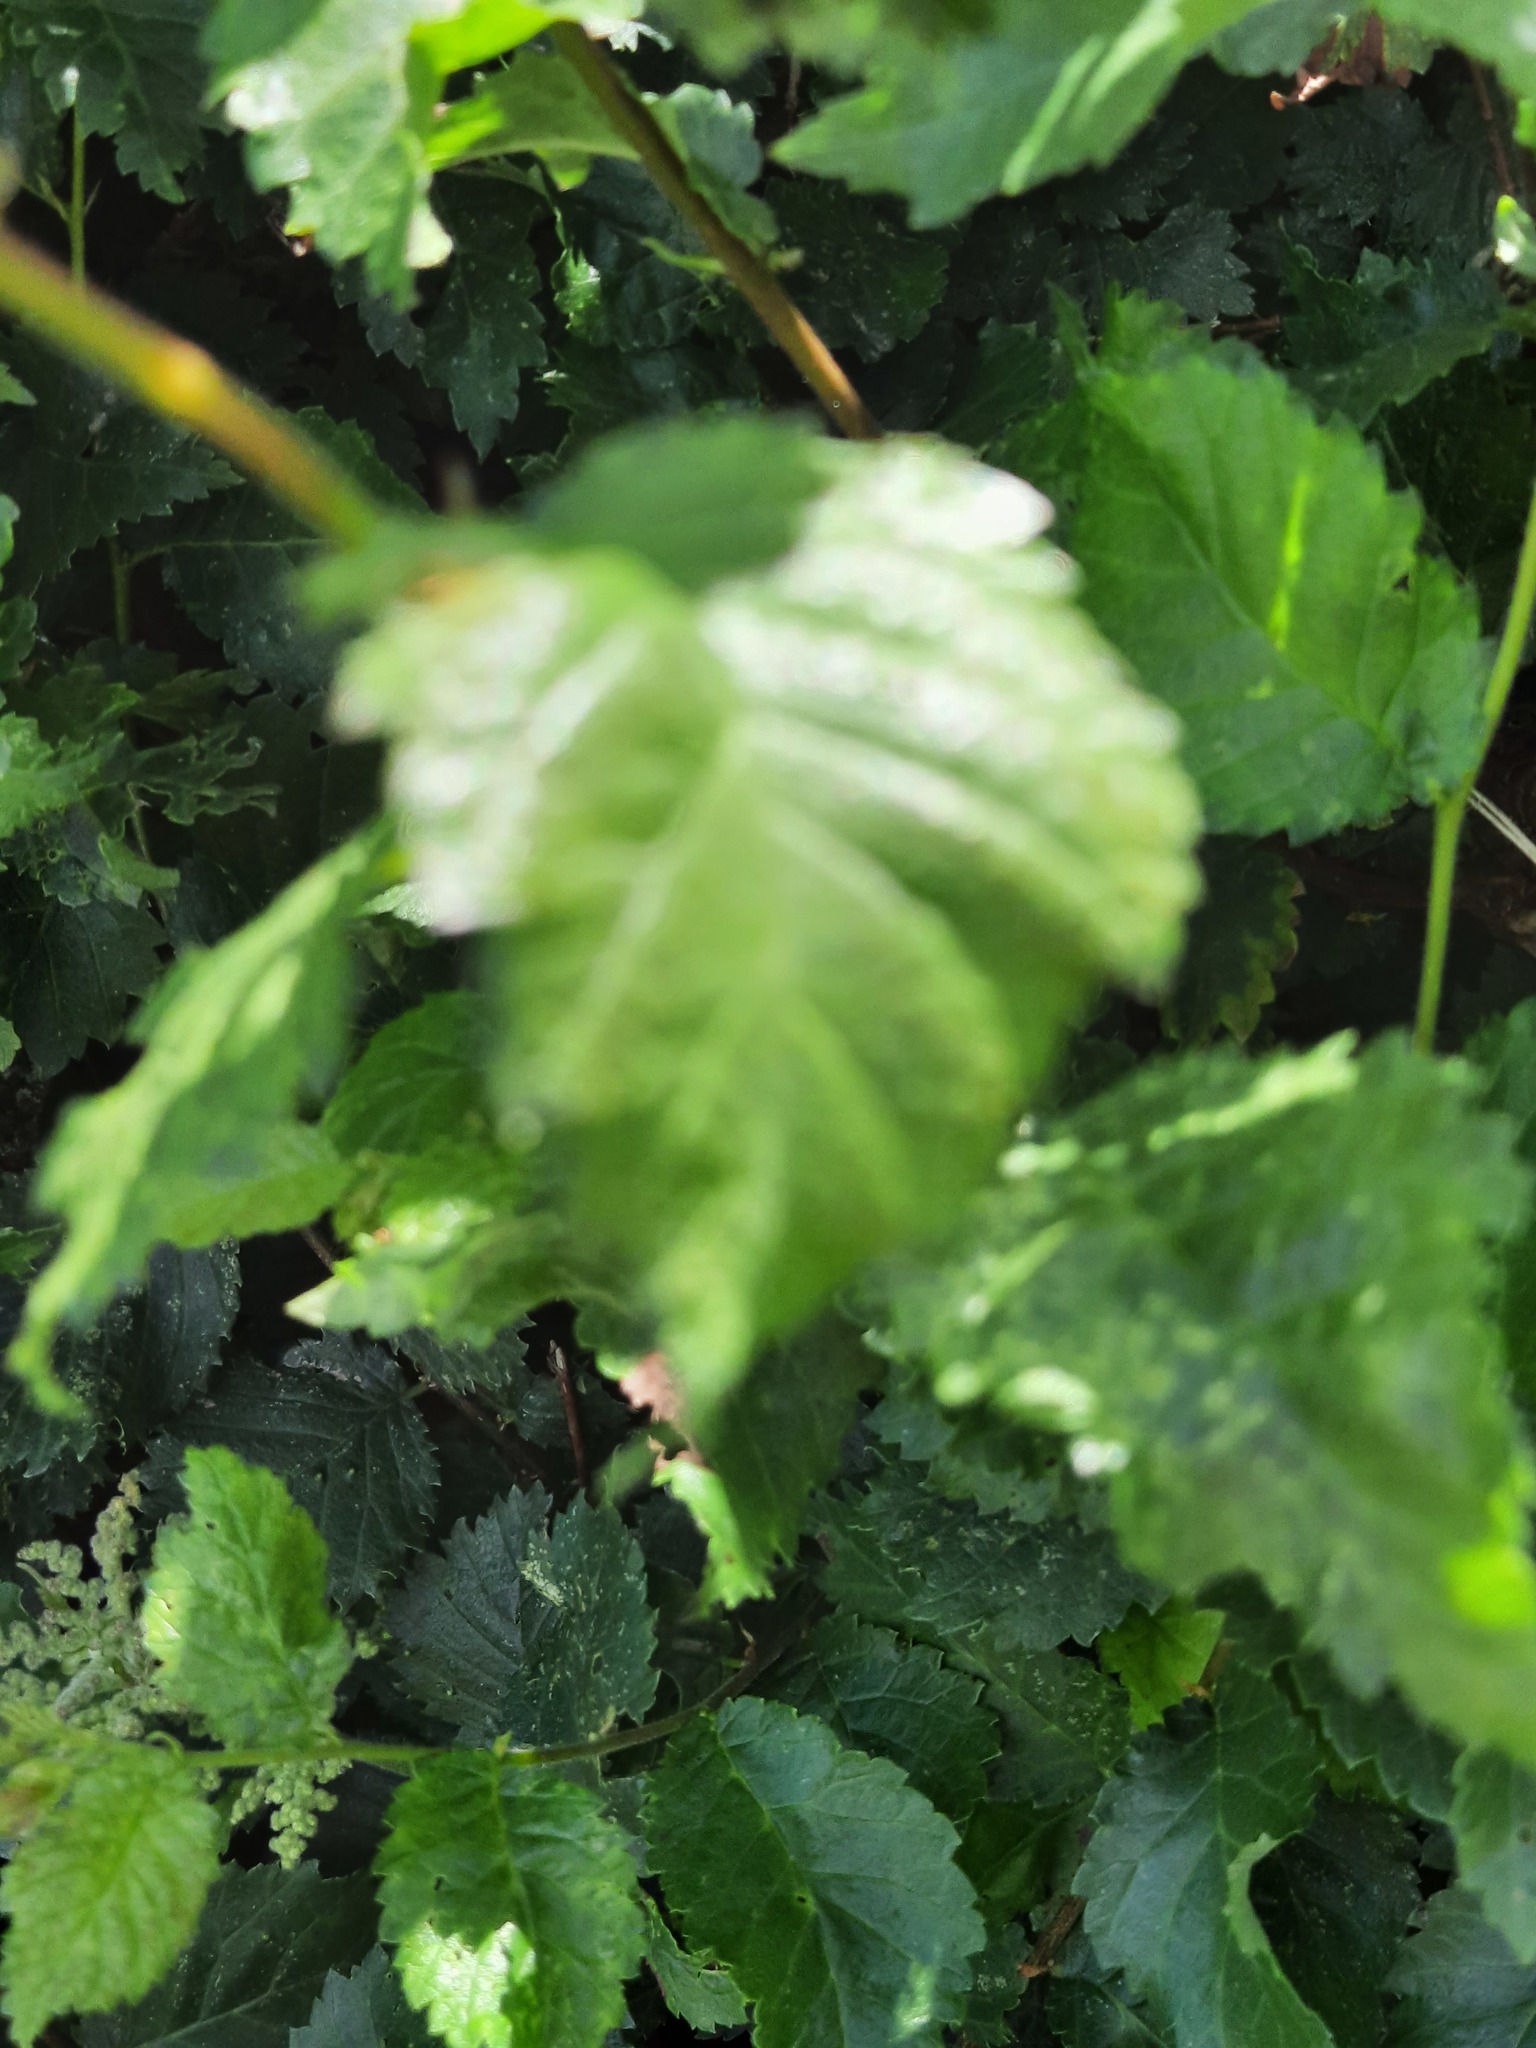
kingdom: Plantae
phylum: Tracheophyta
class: Magnoliopsida
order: Rosales
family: Ulmaceae
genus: Ulmus
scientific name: Ulmus minor
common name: Small-leaved elm
